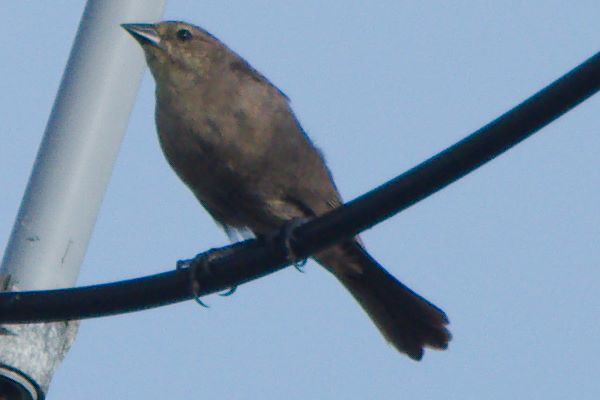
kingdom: Animalia
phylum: Chordata
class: Aves
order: Passeriformes
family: Icteridae
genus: Molothrus
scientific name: Molothrus bonariensis
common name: Shiny cowbird
